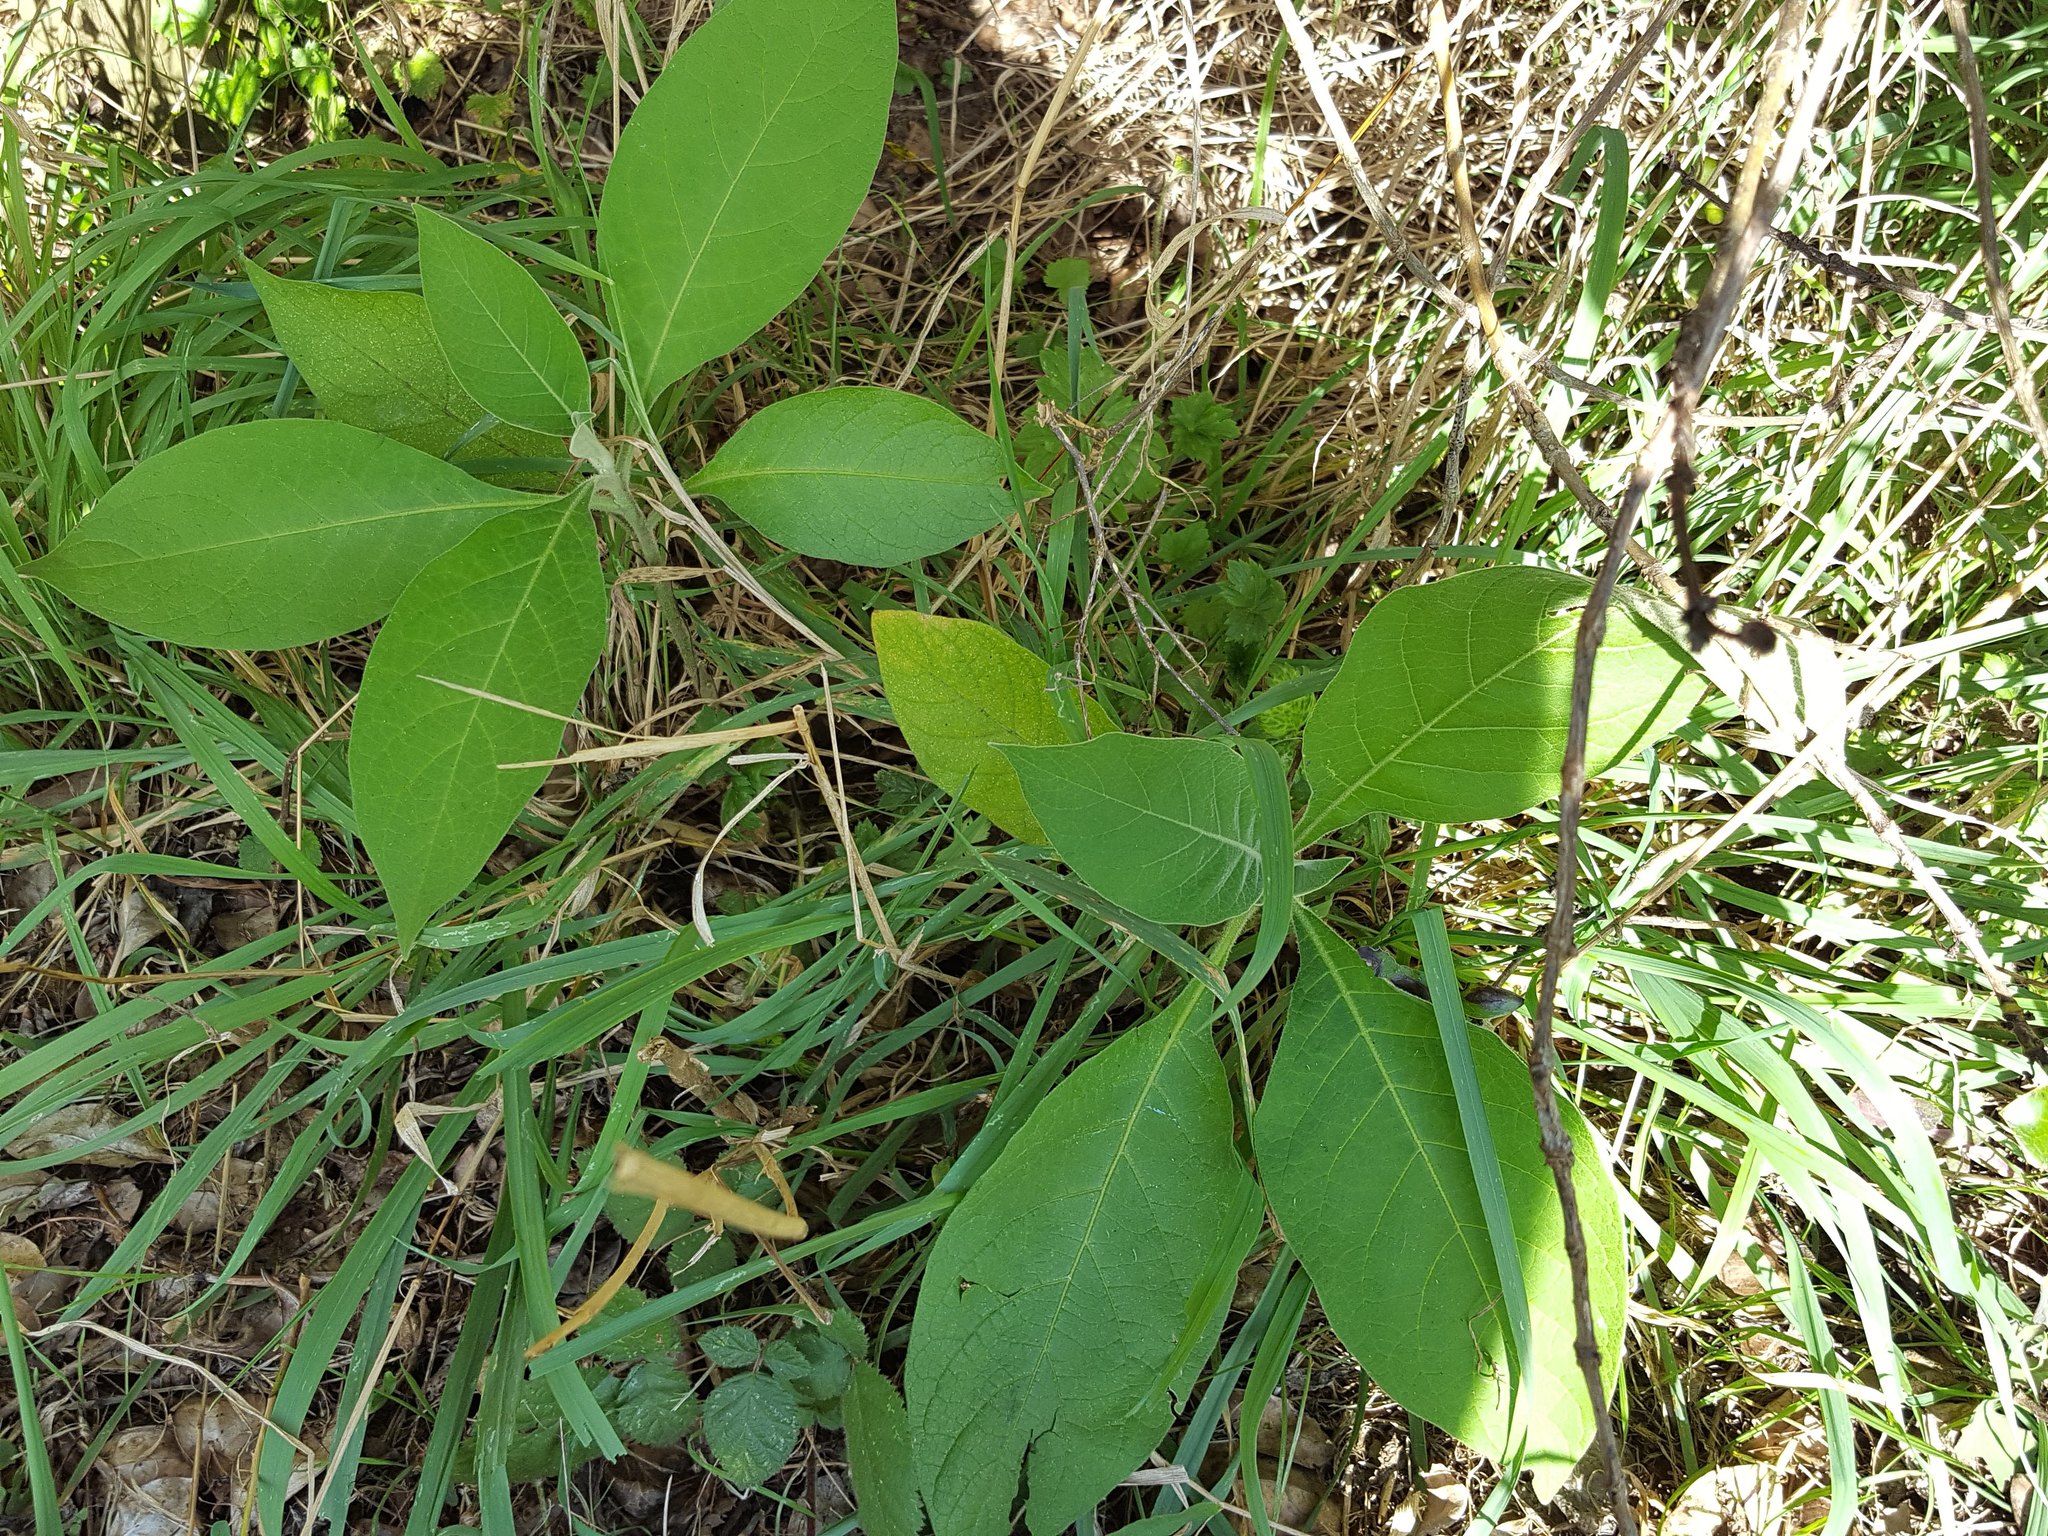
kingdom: Plantae
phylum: Tracheophyta
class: Magnoliopsida
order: Solanales
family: Solanaceae
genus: Solanum
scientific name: Solanum mauritianum
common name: Earleaf nightshade
